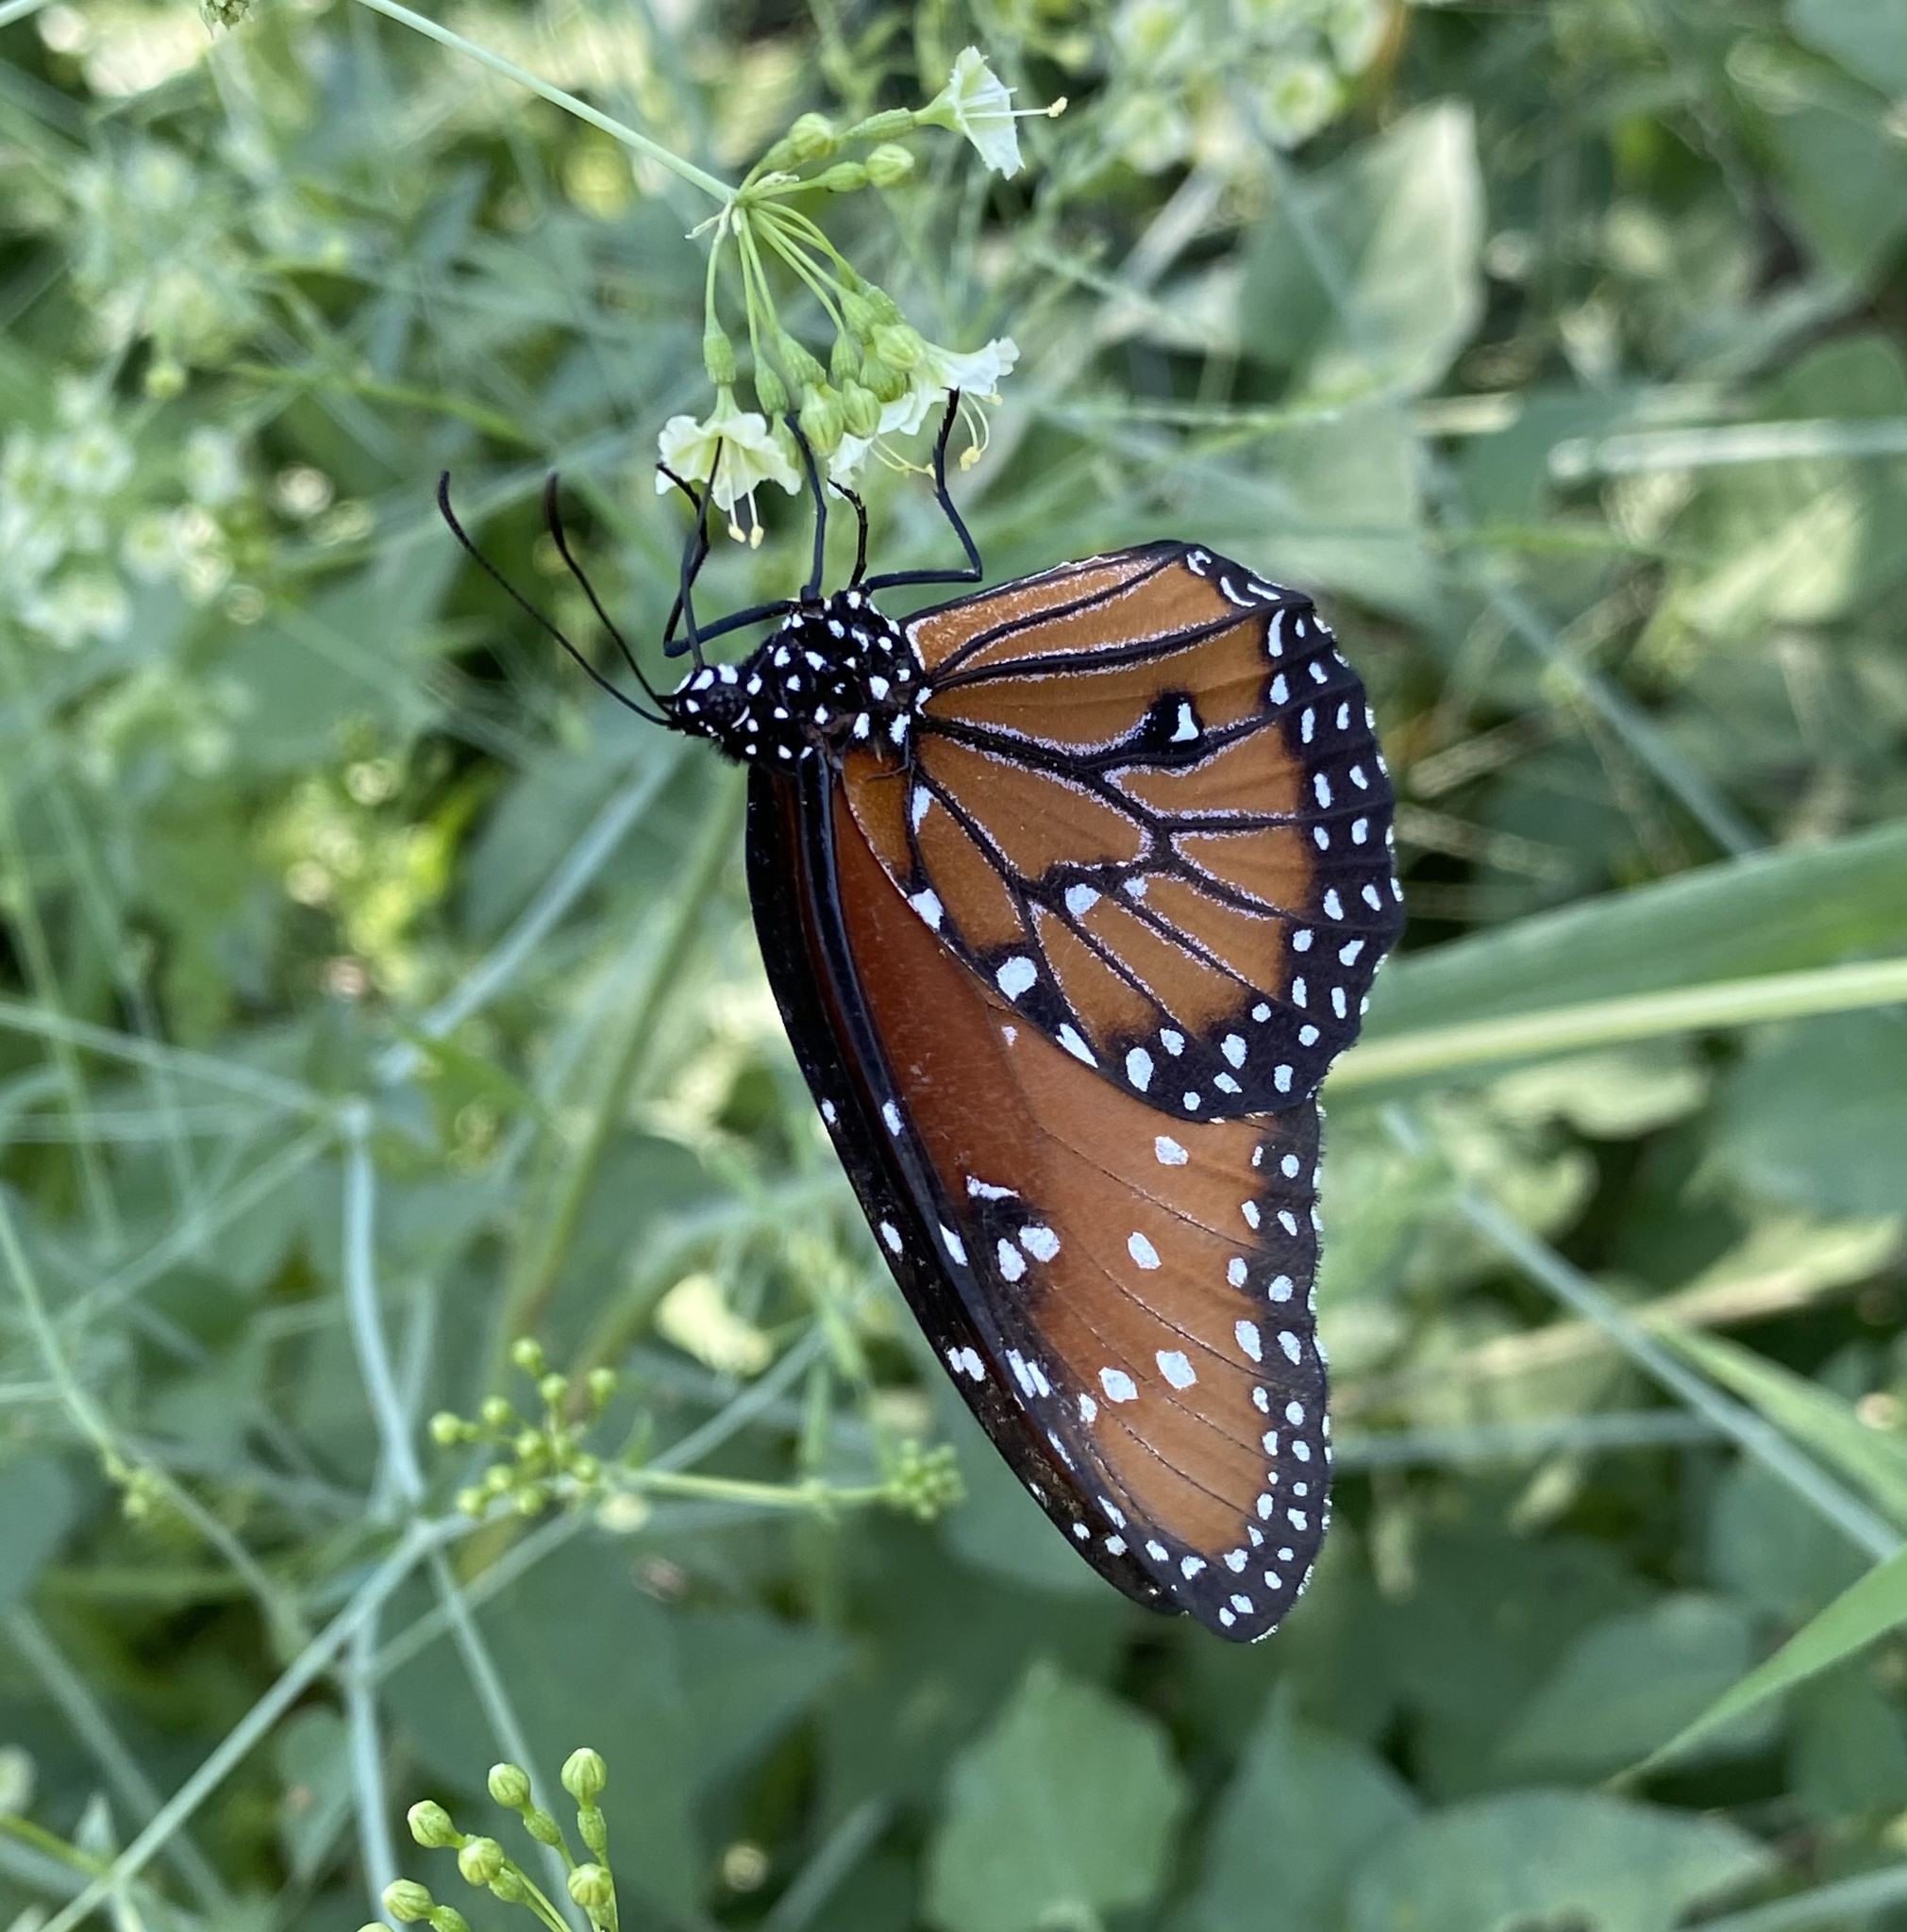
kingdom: Animalia
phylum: Arthropoda
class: Insecta
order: Lepidoptera
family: Nymphalidae
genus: Danaus
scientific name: Danaus gilippus
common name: Queen
